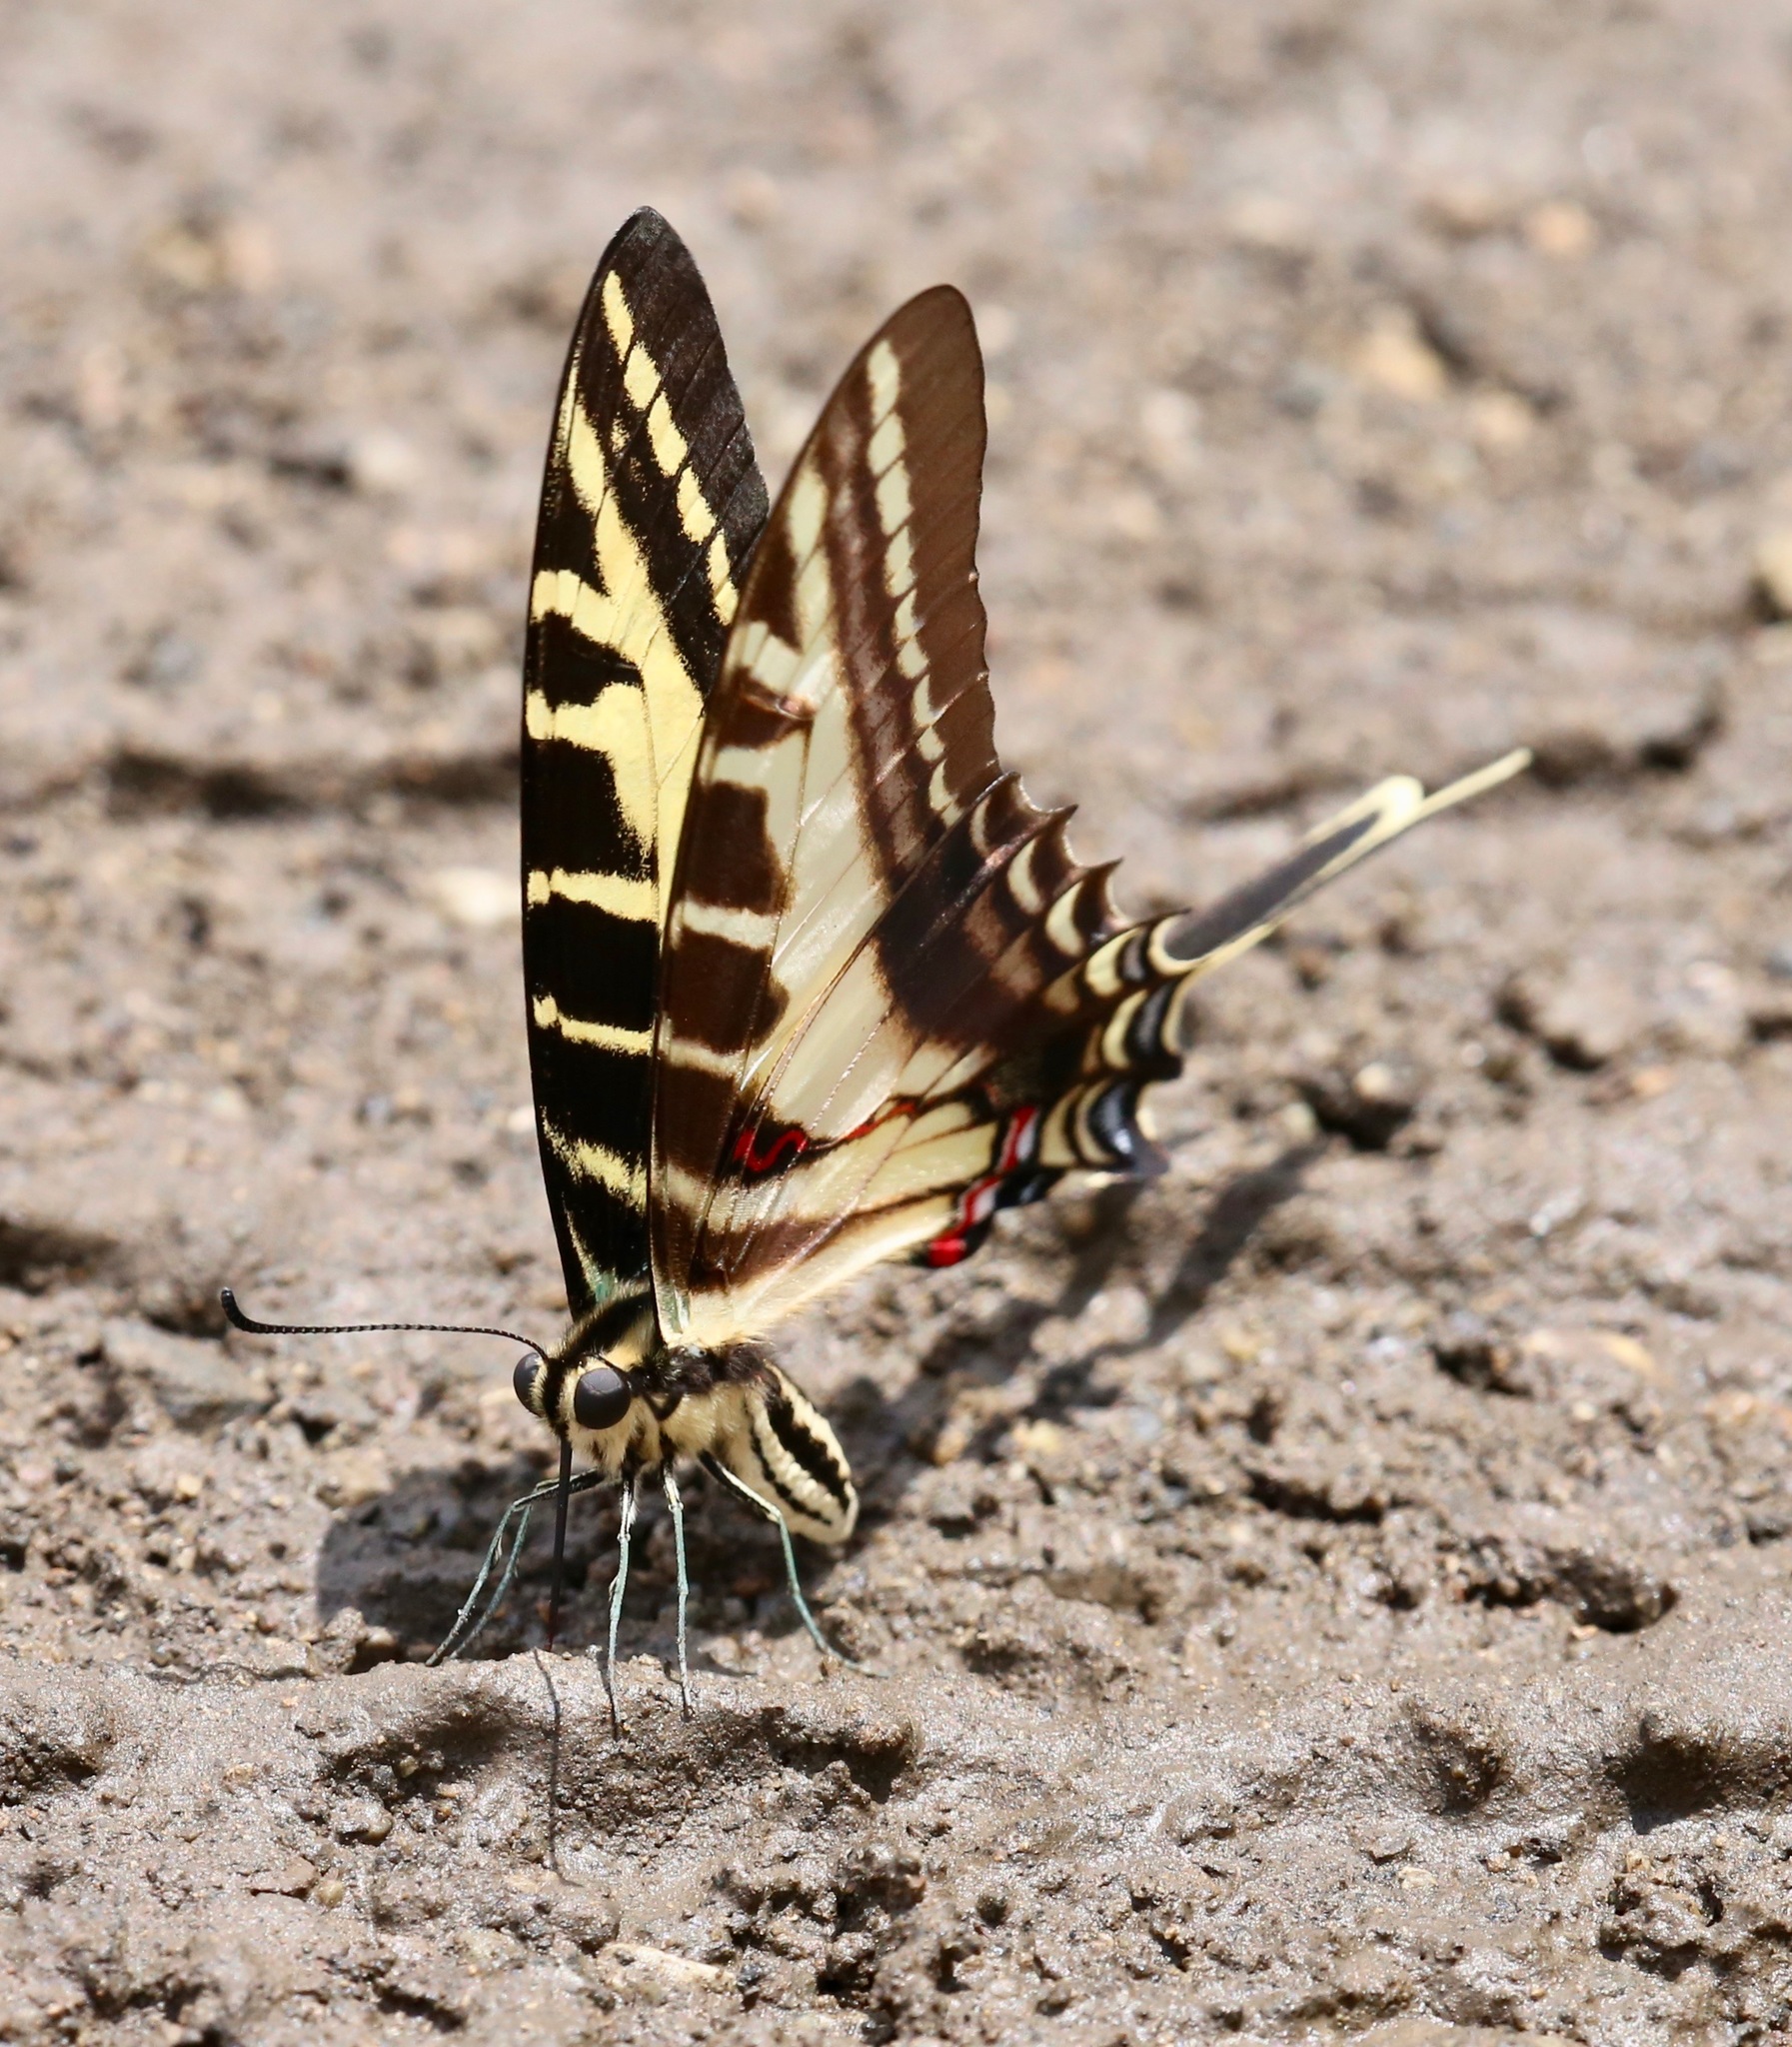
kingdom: Animalia
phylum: Arthropoda
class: Insecta
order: Lepidoptera
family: Papilionidae
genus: Protographium
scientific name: Protographium philolaus
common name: Dark zebra swallowtail
